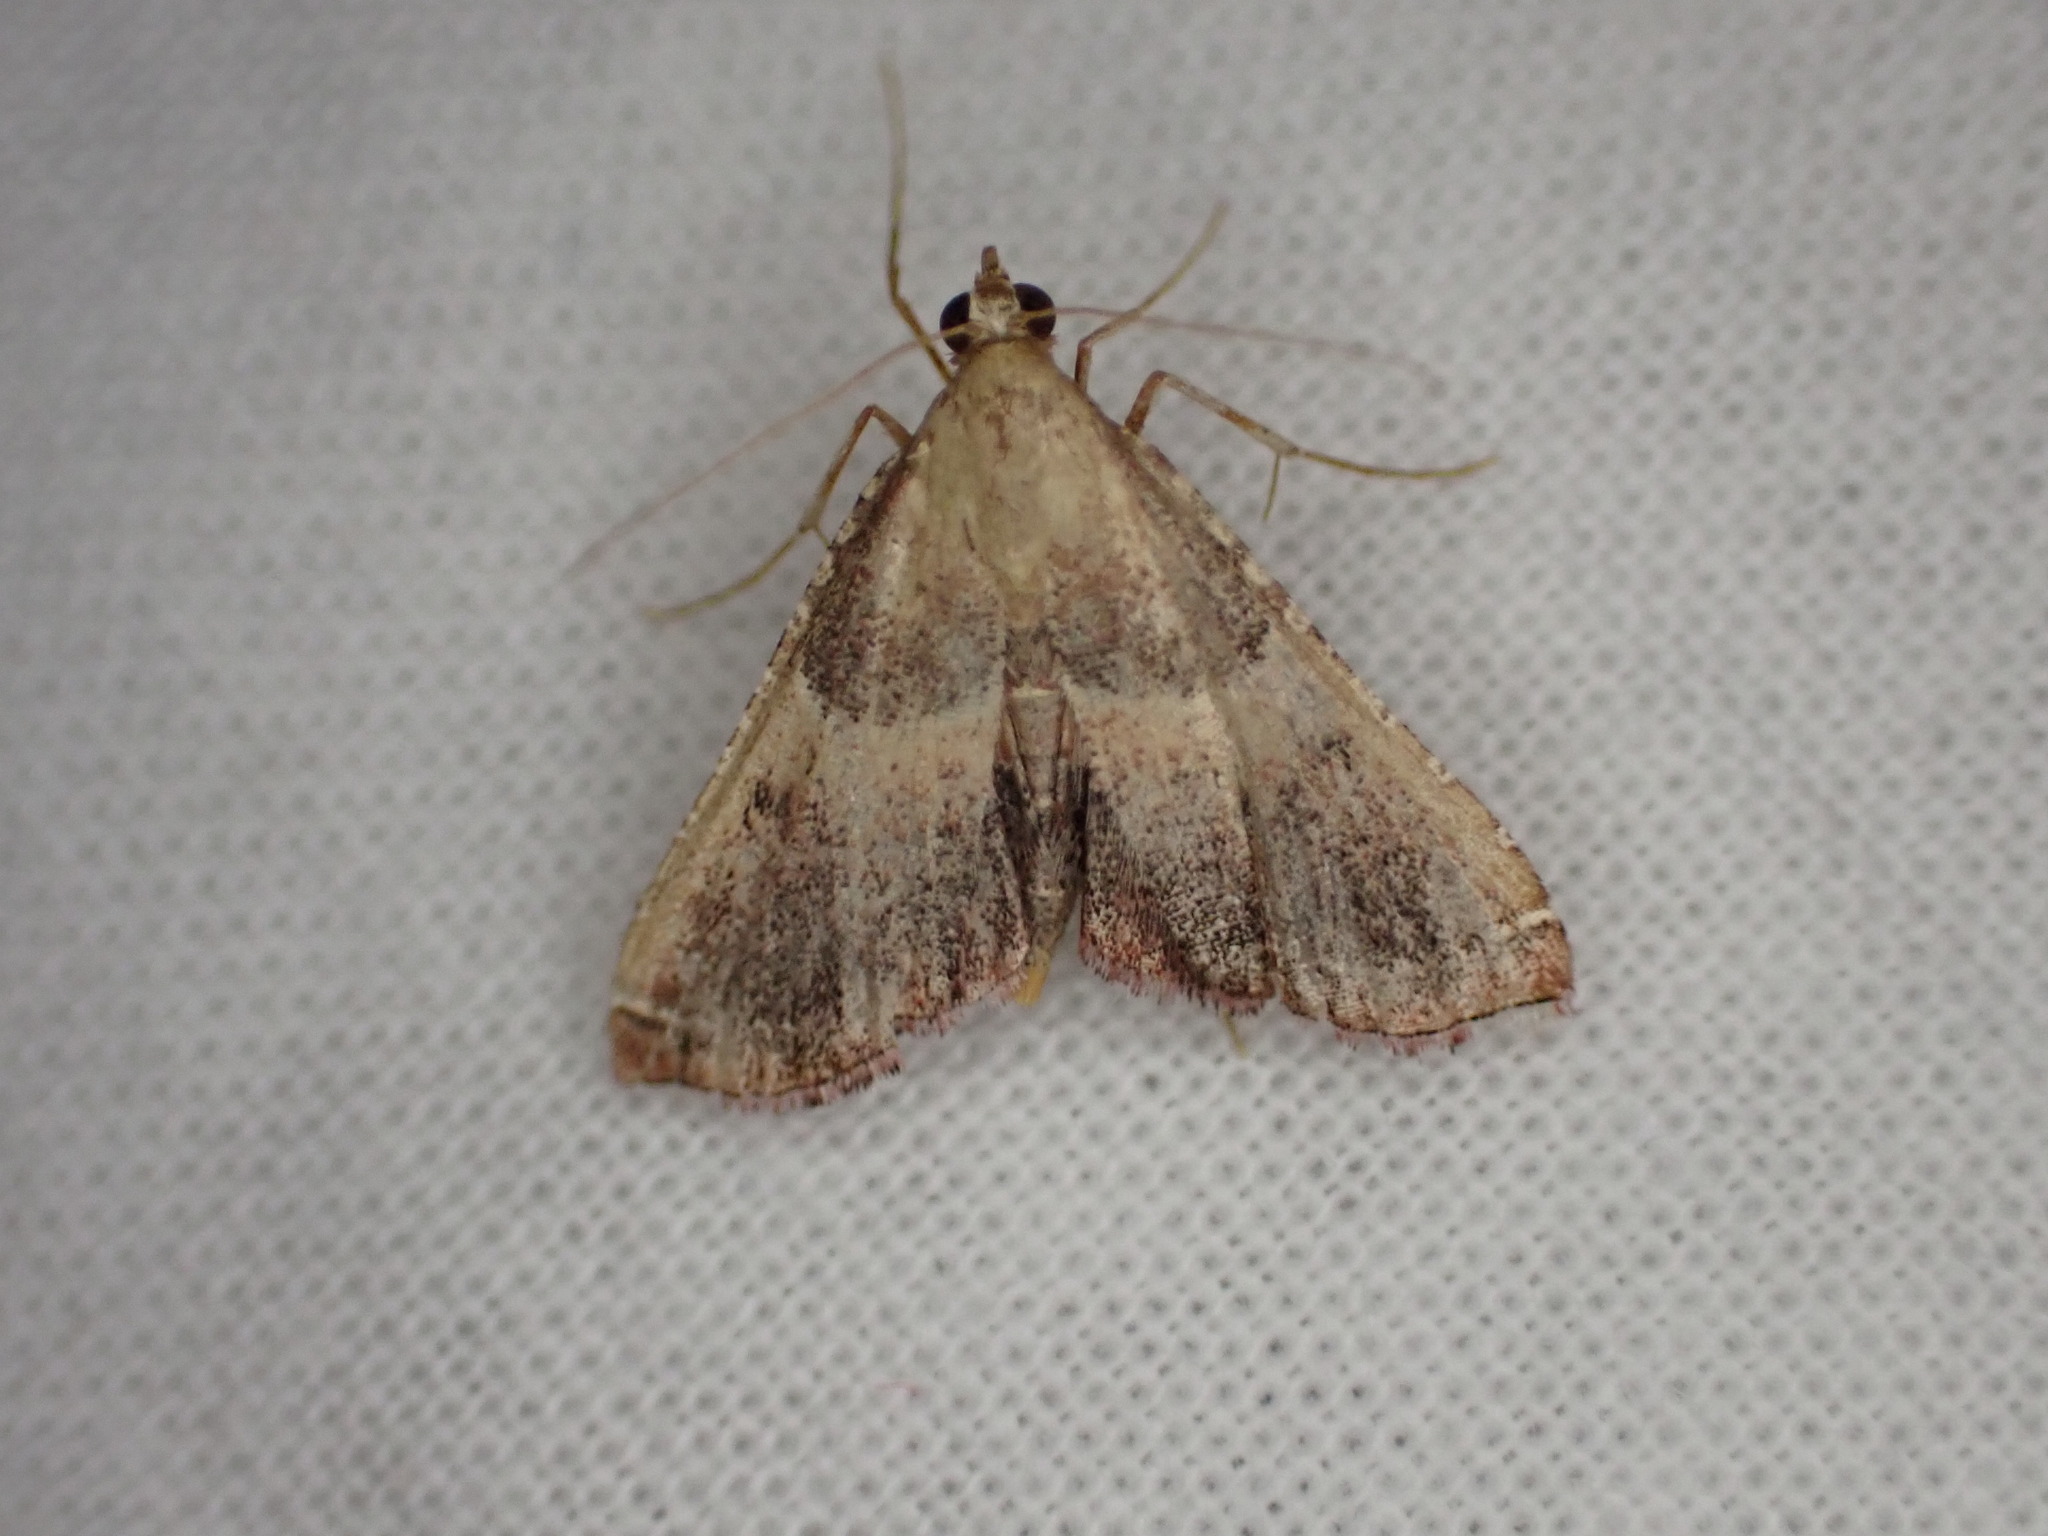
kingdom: Animalia
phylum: Arthropoda
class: Insecta
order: Lepidoptera
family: Pyralidae
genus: Endotricha
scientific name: Endotricha flammealis
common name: Rosy tabby
